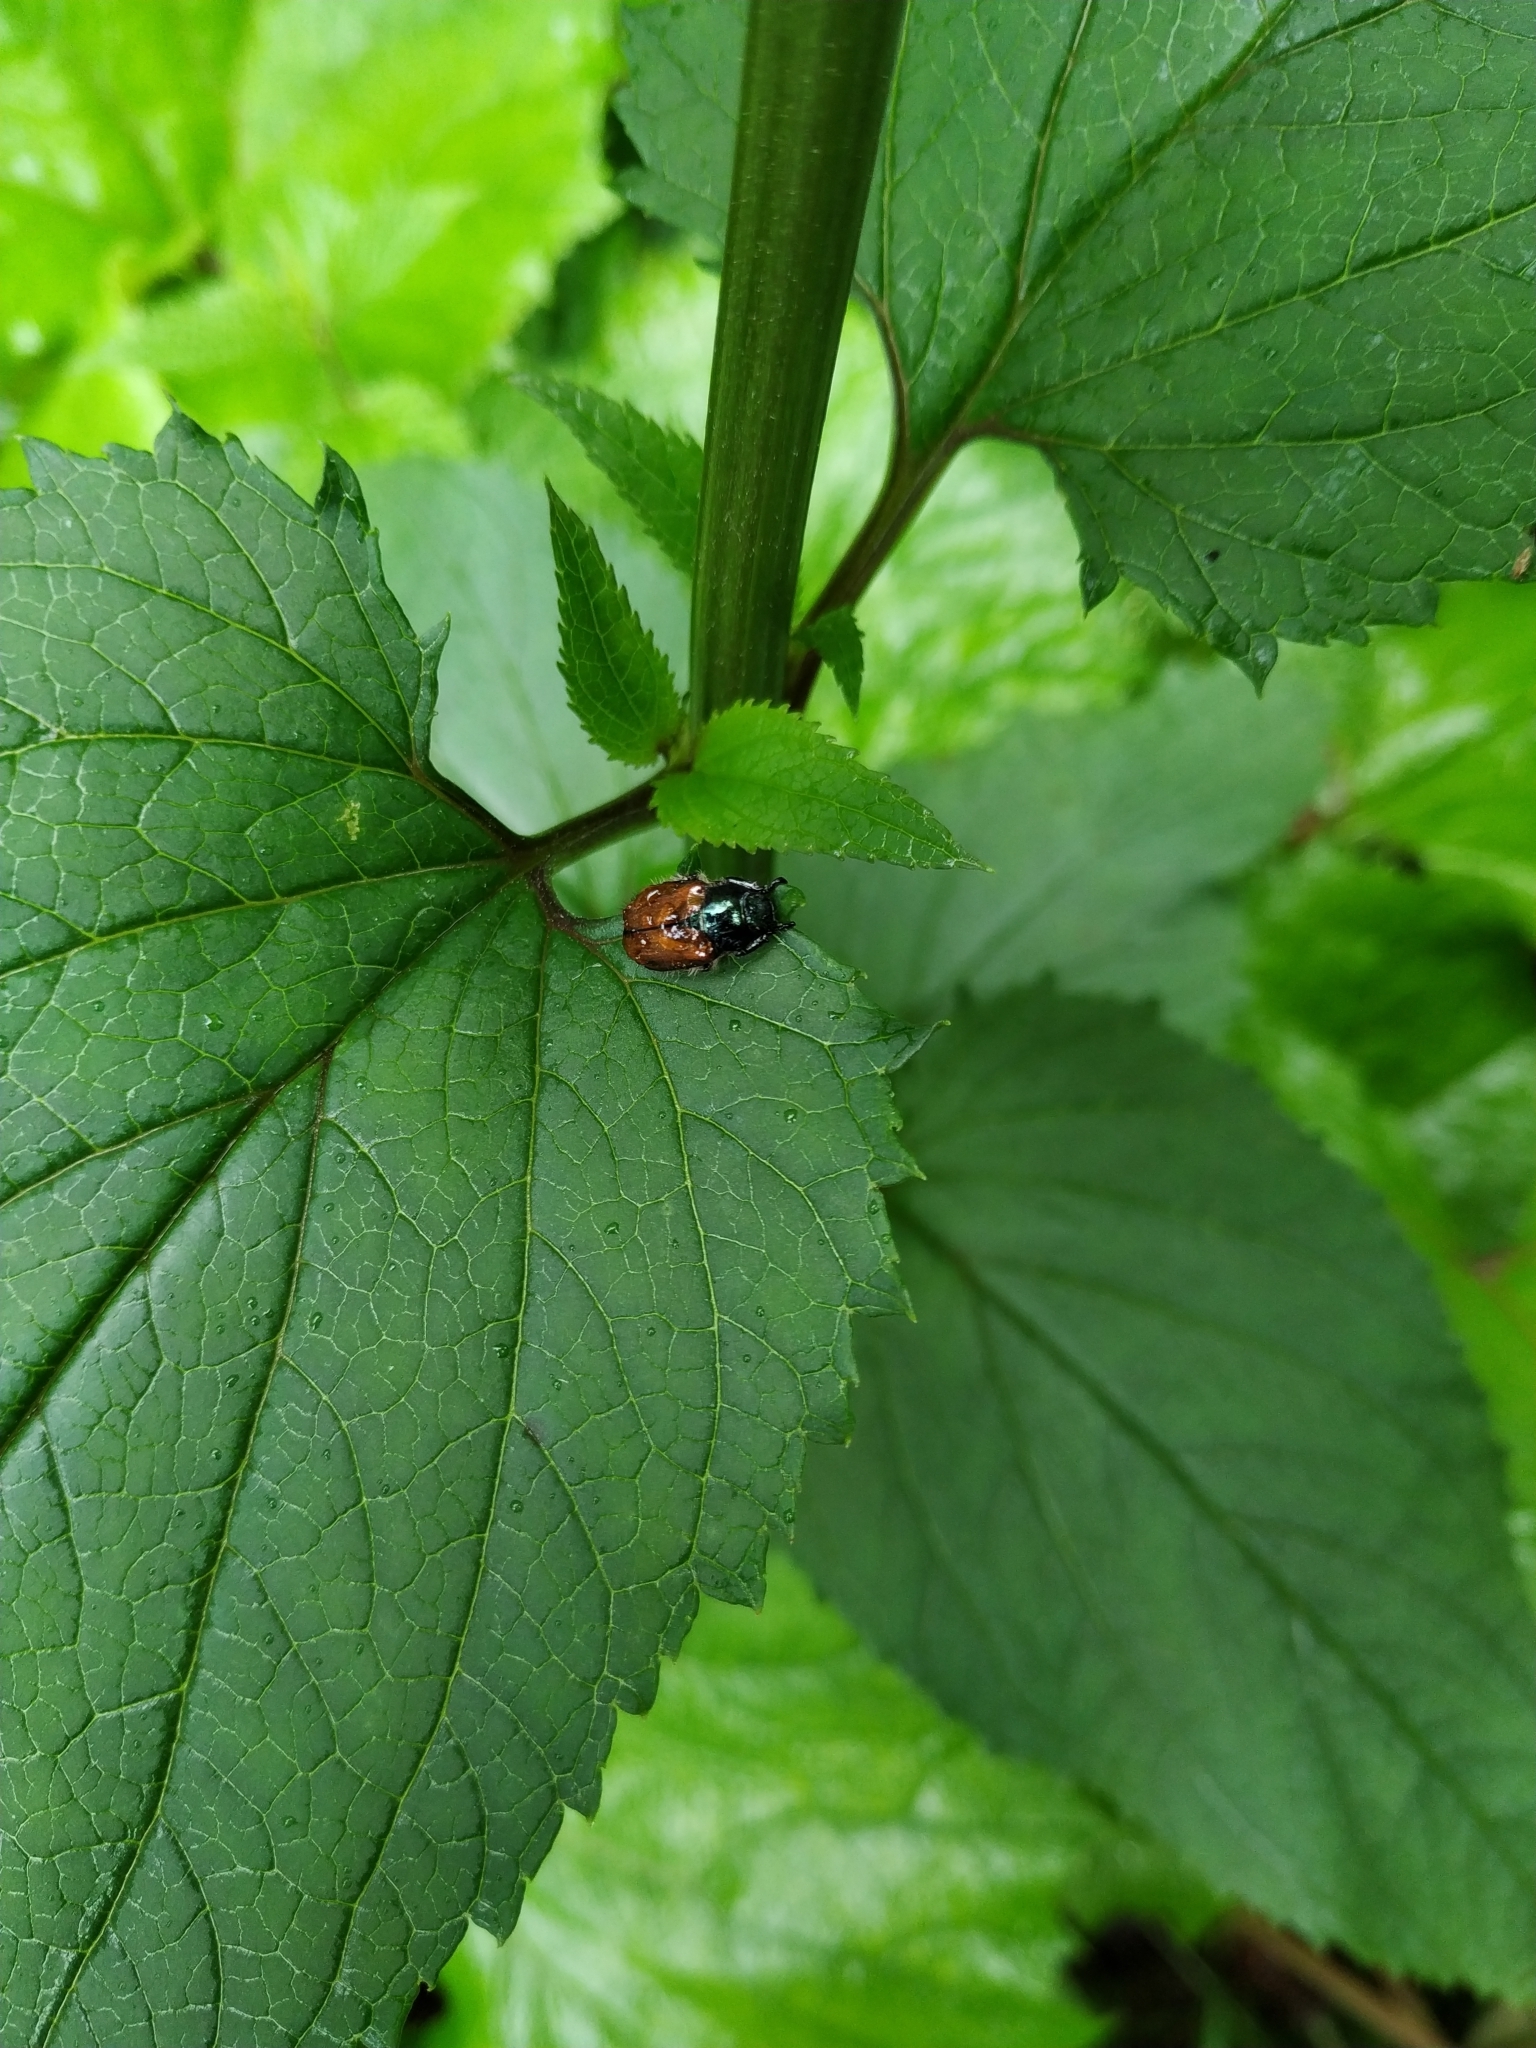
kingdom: Animalia
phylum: Arthropoda
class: Insecta
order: Coleoptera
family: Scarabaeidae
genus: Phyllopertha
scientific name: Phyllopertha horticola
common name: Garden chafer
